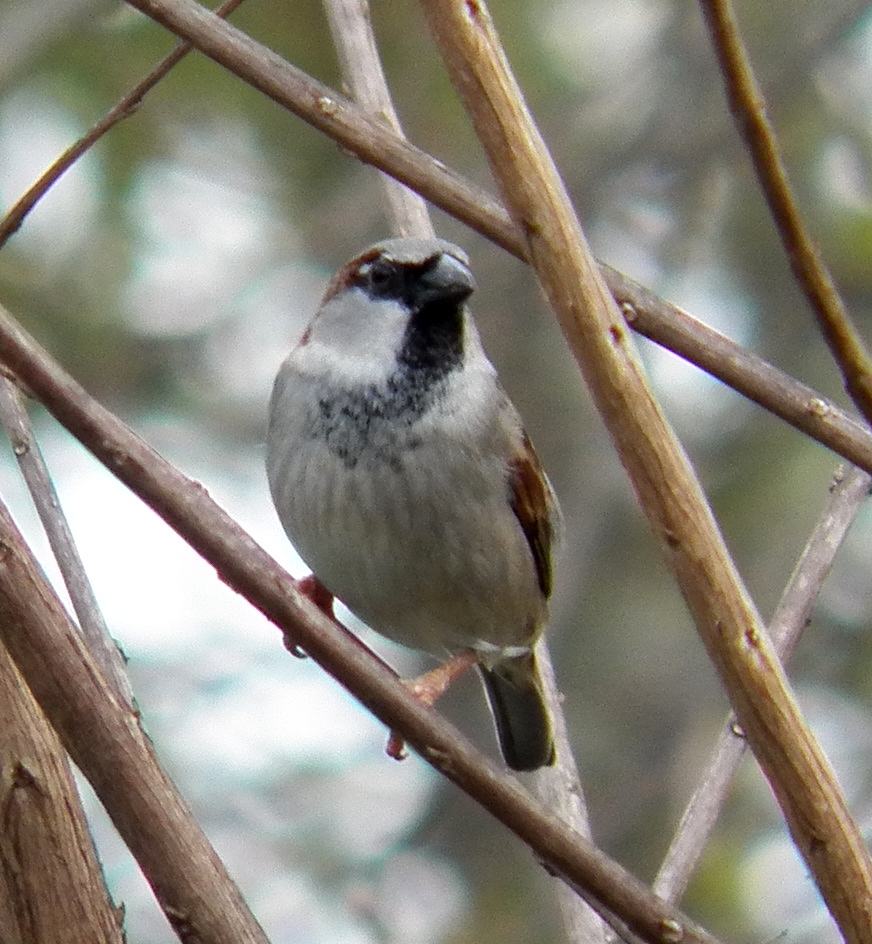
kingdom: Animalia
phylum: Chordata
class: Aves
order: Passeriformes
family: Passeridae
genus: Passer
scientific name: Passer domesticus
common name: House sparrow
